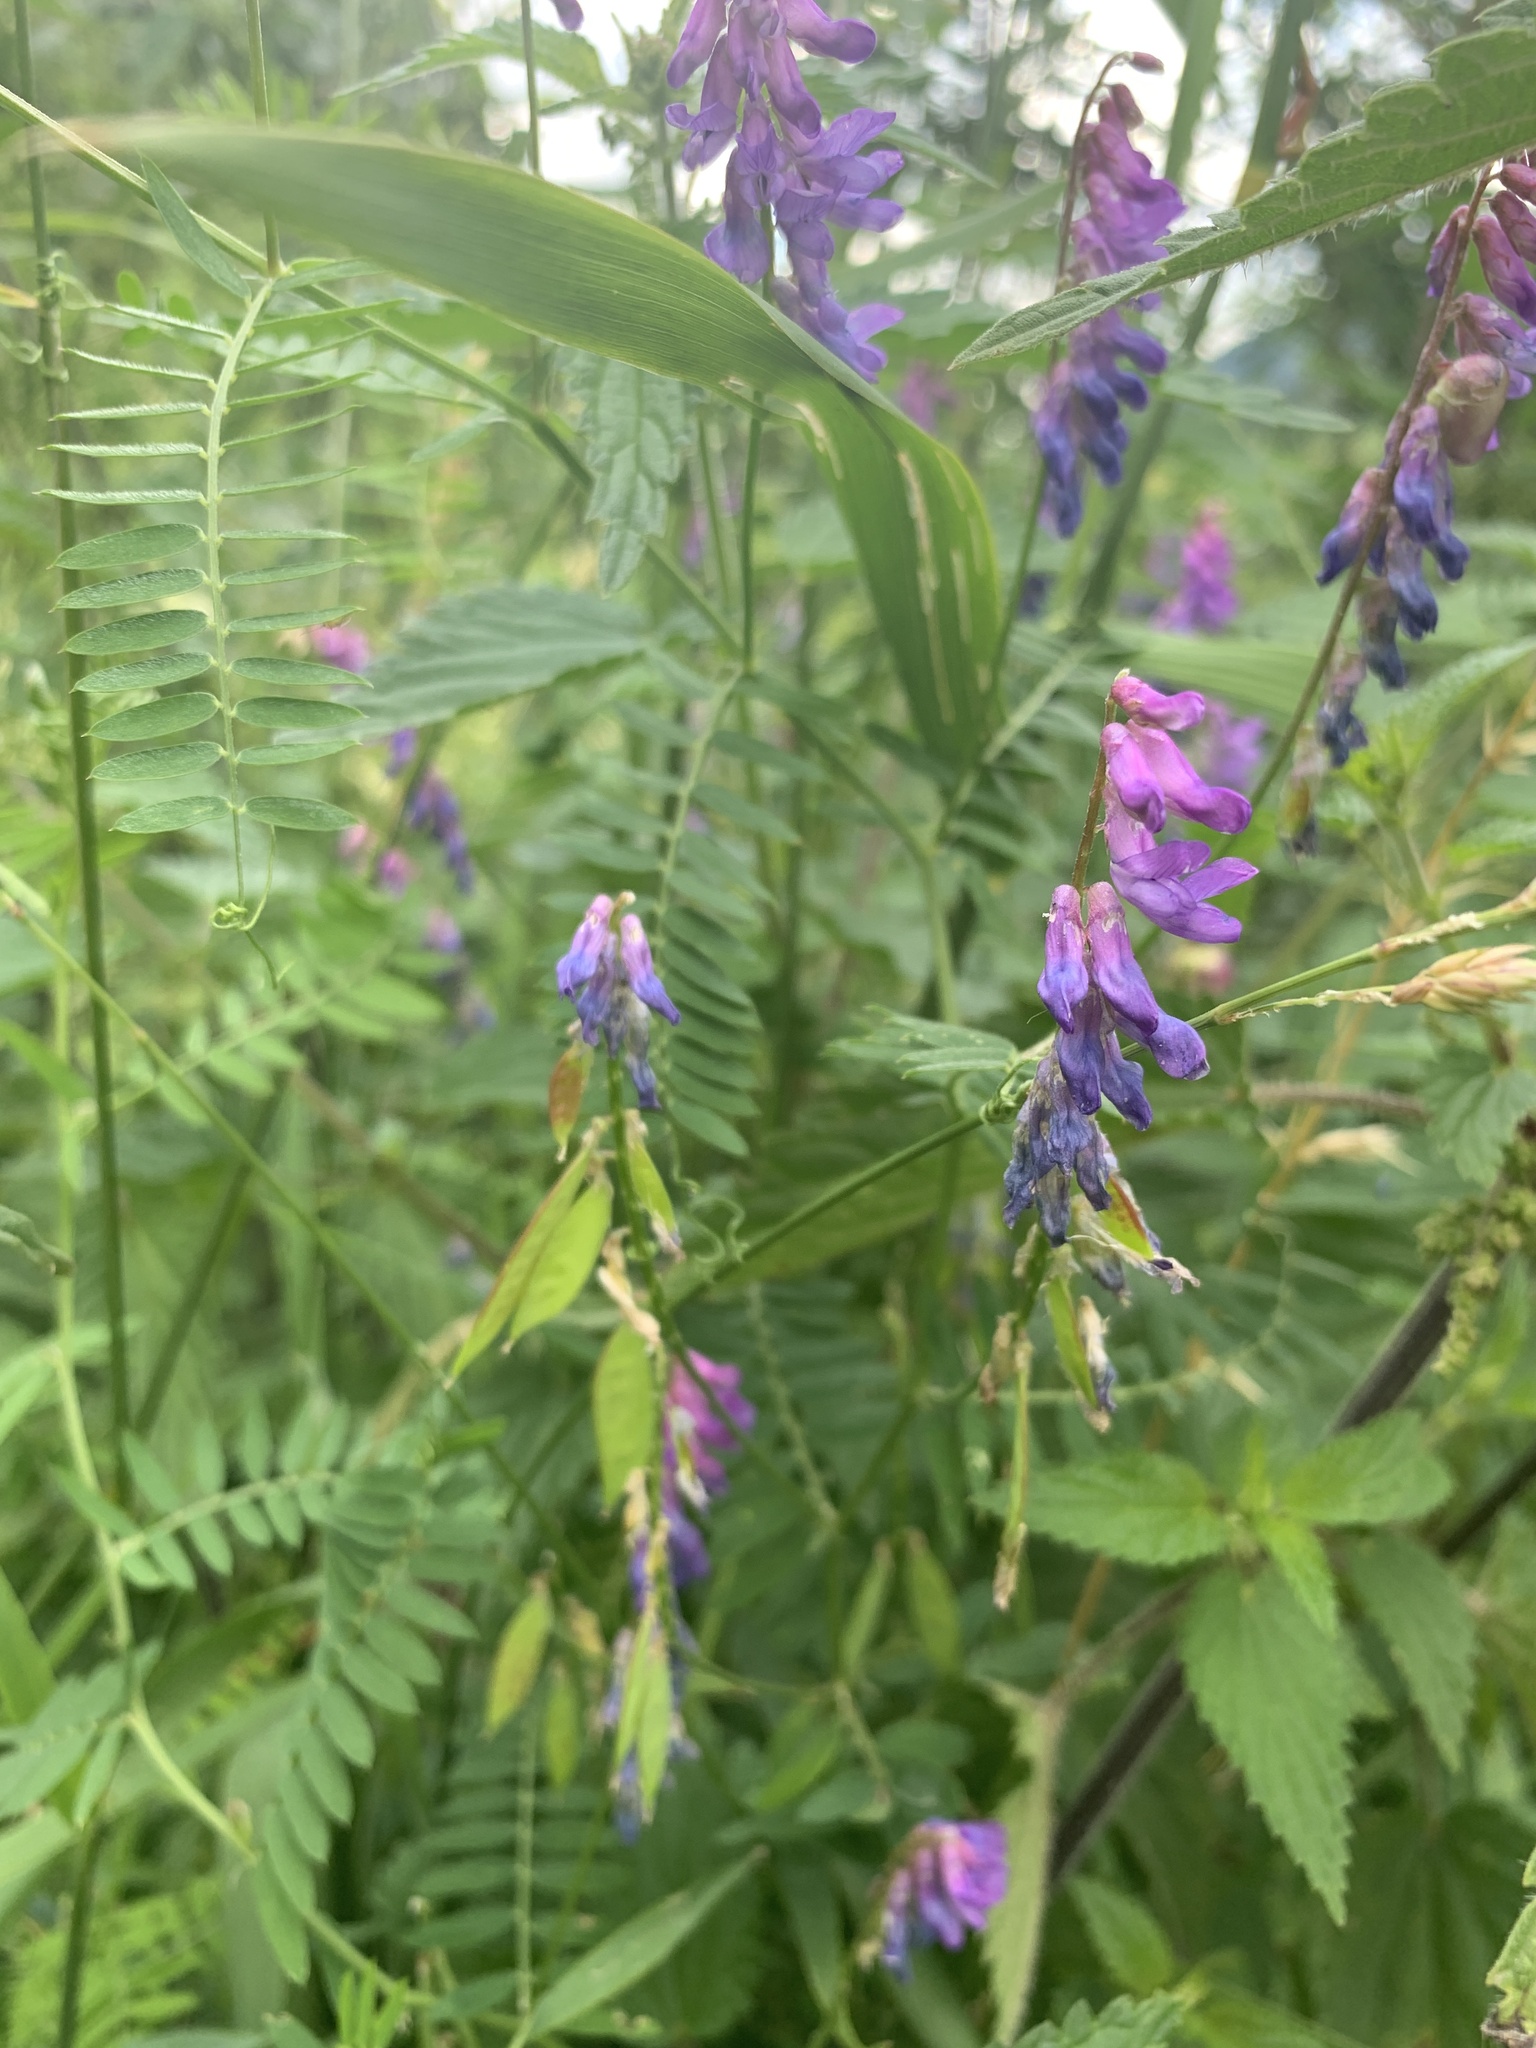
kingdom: Plantae
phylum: Tracheophyta
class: Magnoliopsida
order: Fabales
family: Fabaceae
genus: Vicia
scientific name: Vicia cracca
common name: Bird vetch
